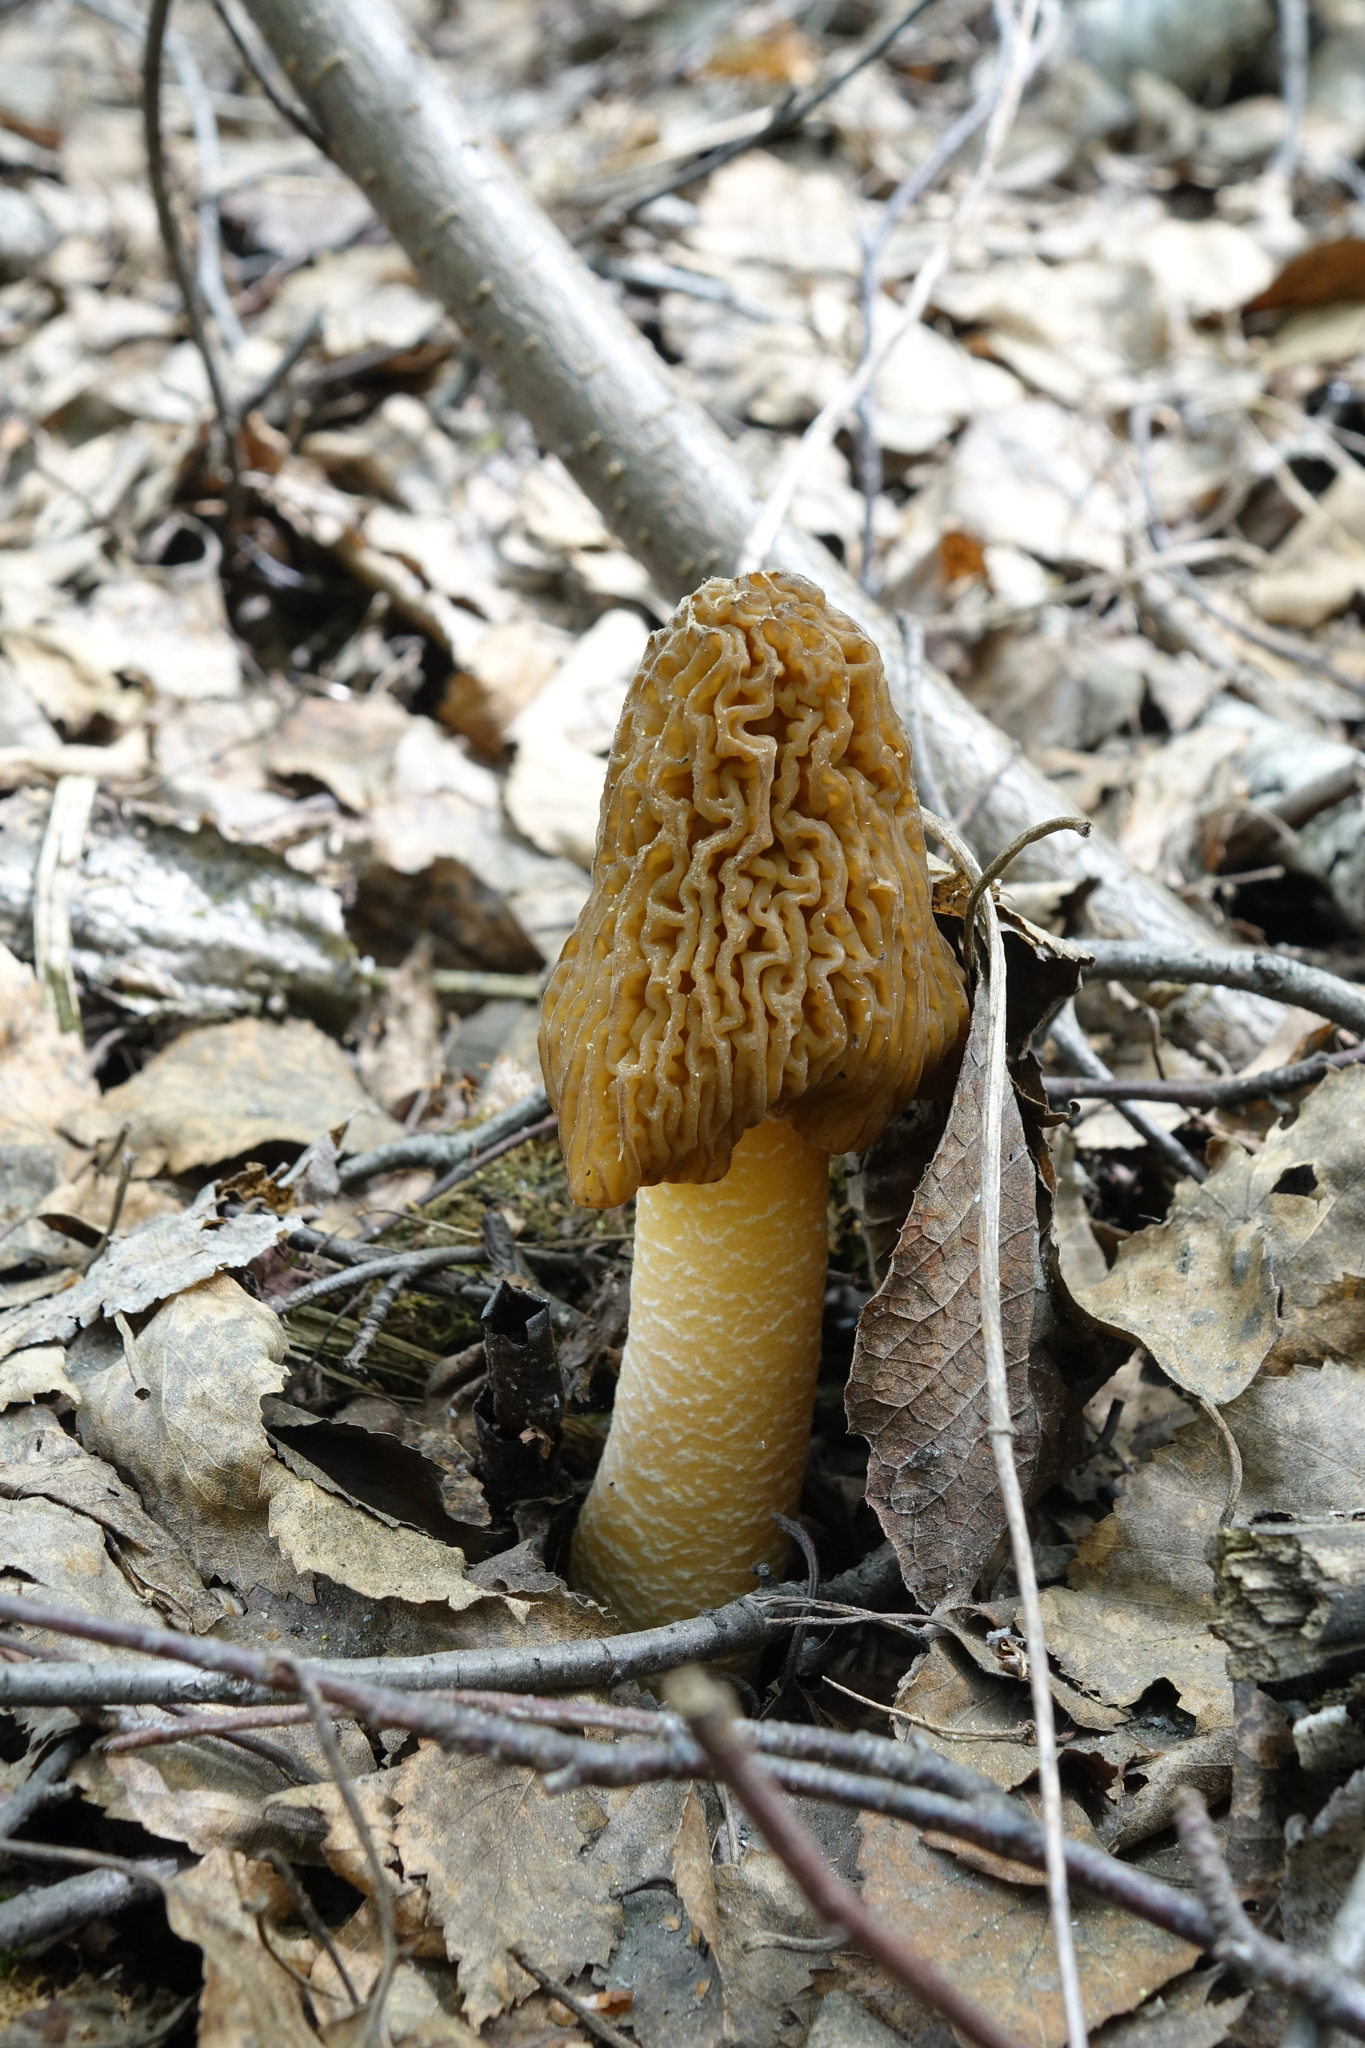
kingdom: Fungi
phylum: Ascomycota
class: Pezizomycetes
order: Pezizales
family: Morchellaceae
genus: Verpa
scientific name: Verpa bohemica
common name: Wrinkled thimble morel
